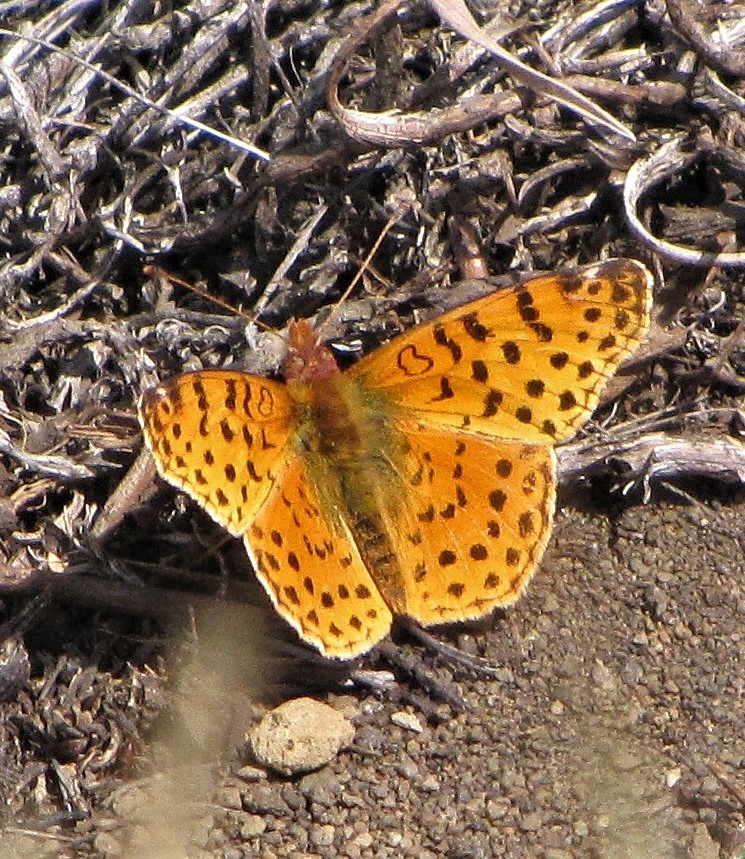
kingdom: Animalia
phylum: Arthropoda
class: Insecta
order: Lepidoptera
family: Nymphalidae
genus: Issoria
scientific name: Issoria Yramea cytheris
